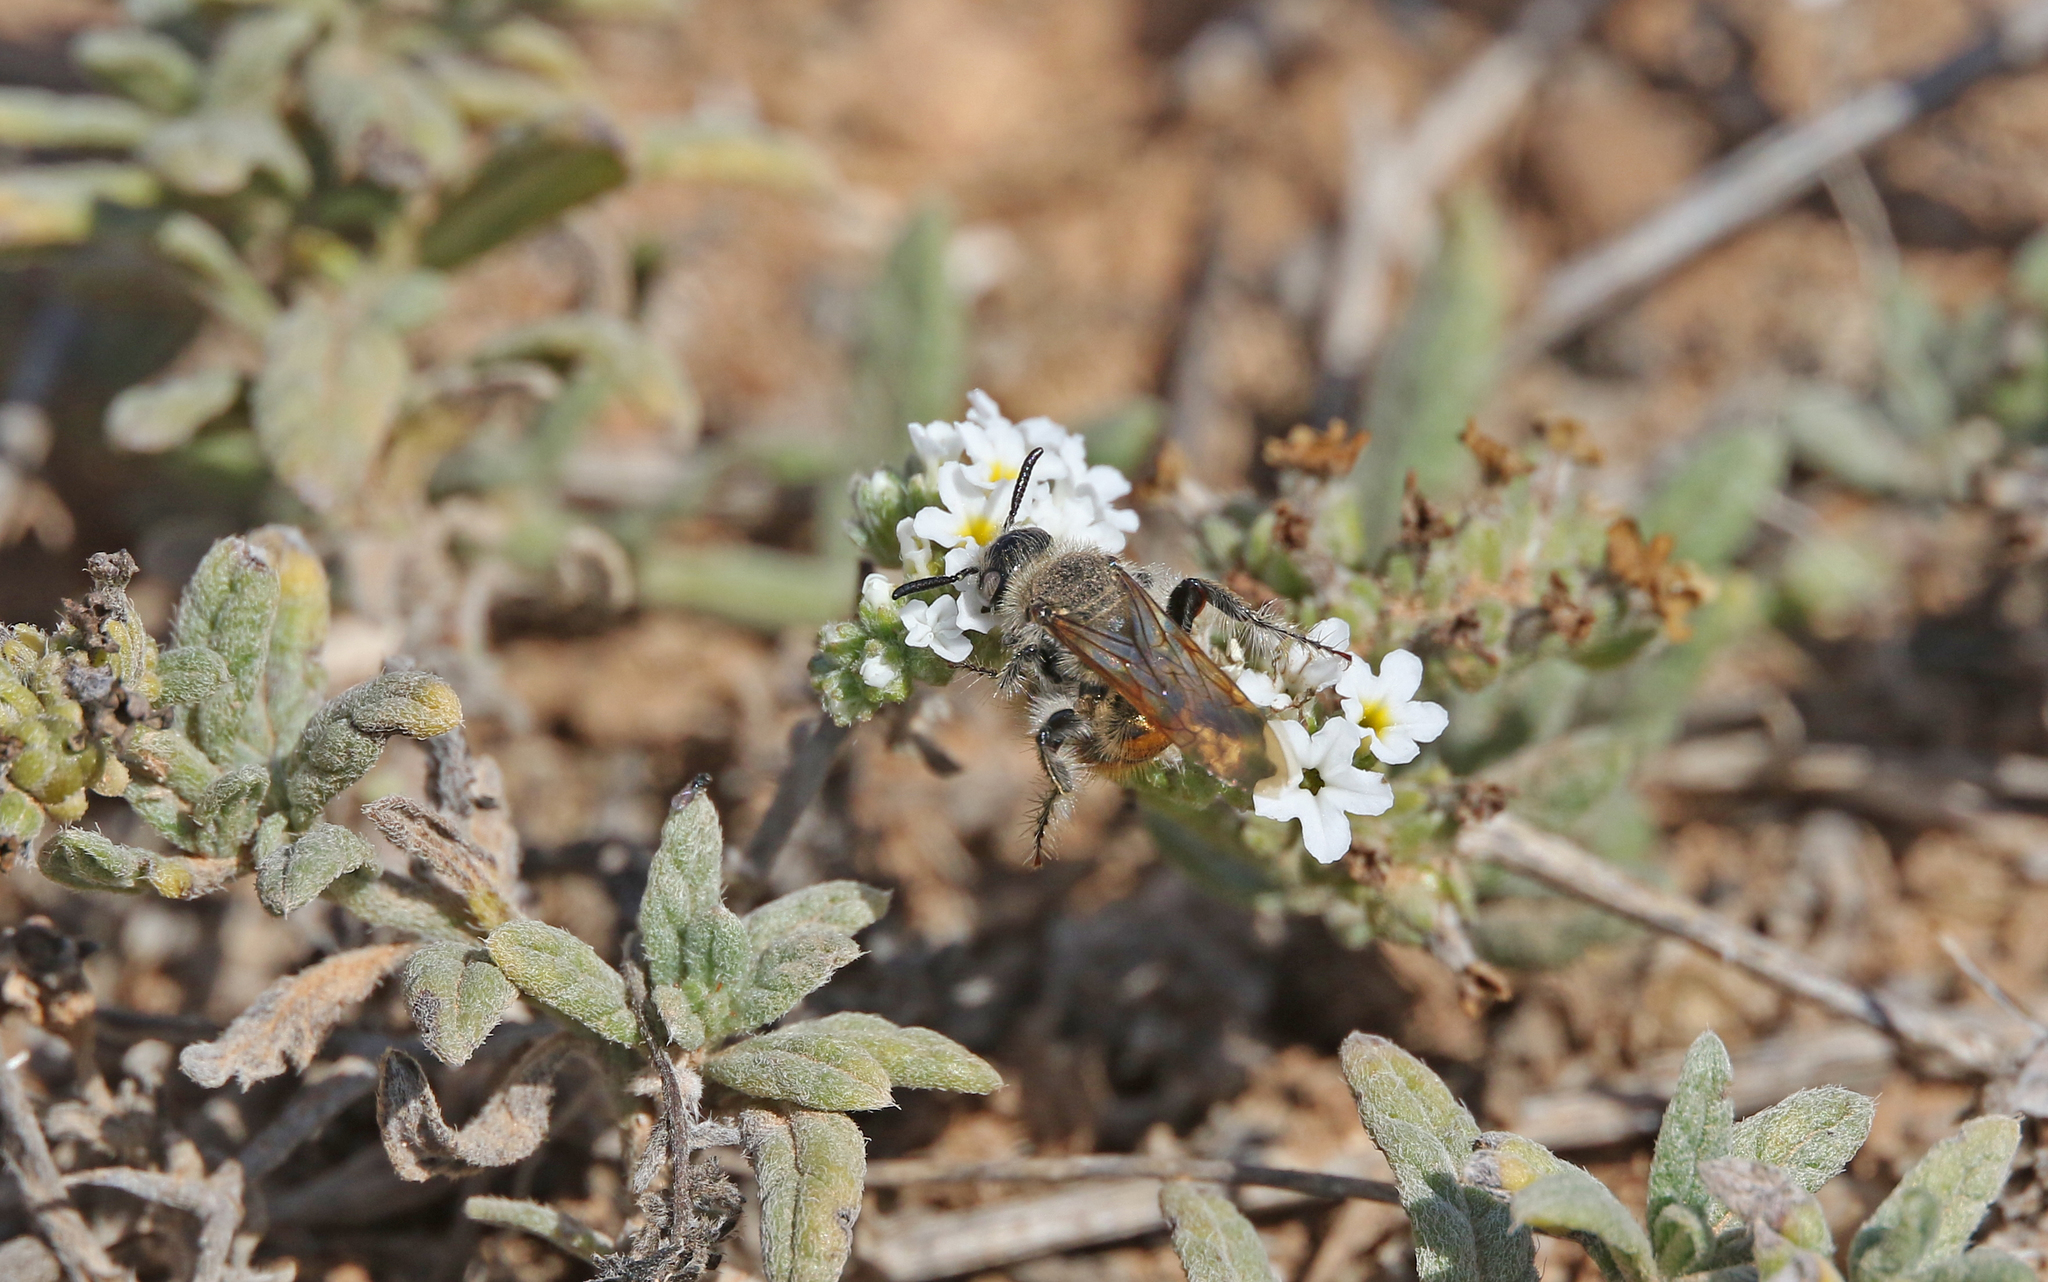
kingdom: Animalia
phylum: Arthropoda
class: Insecta
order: Hymenoptera
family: Scoliidae
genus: Micromeriella
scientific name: Micromeriella aureola
